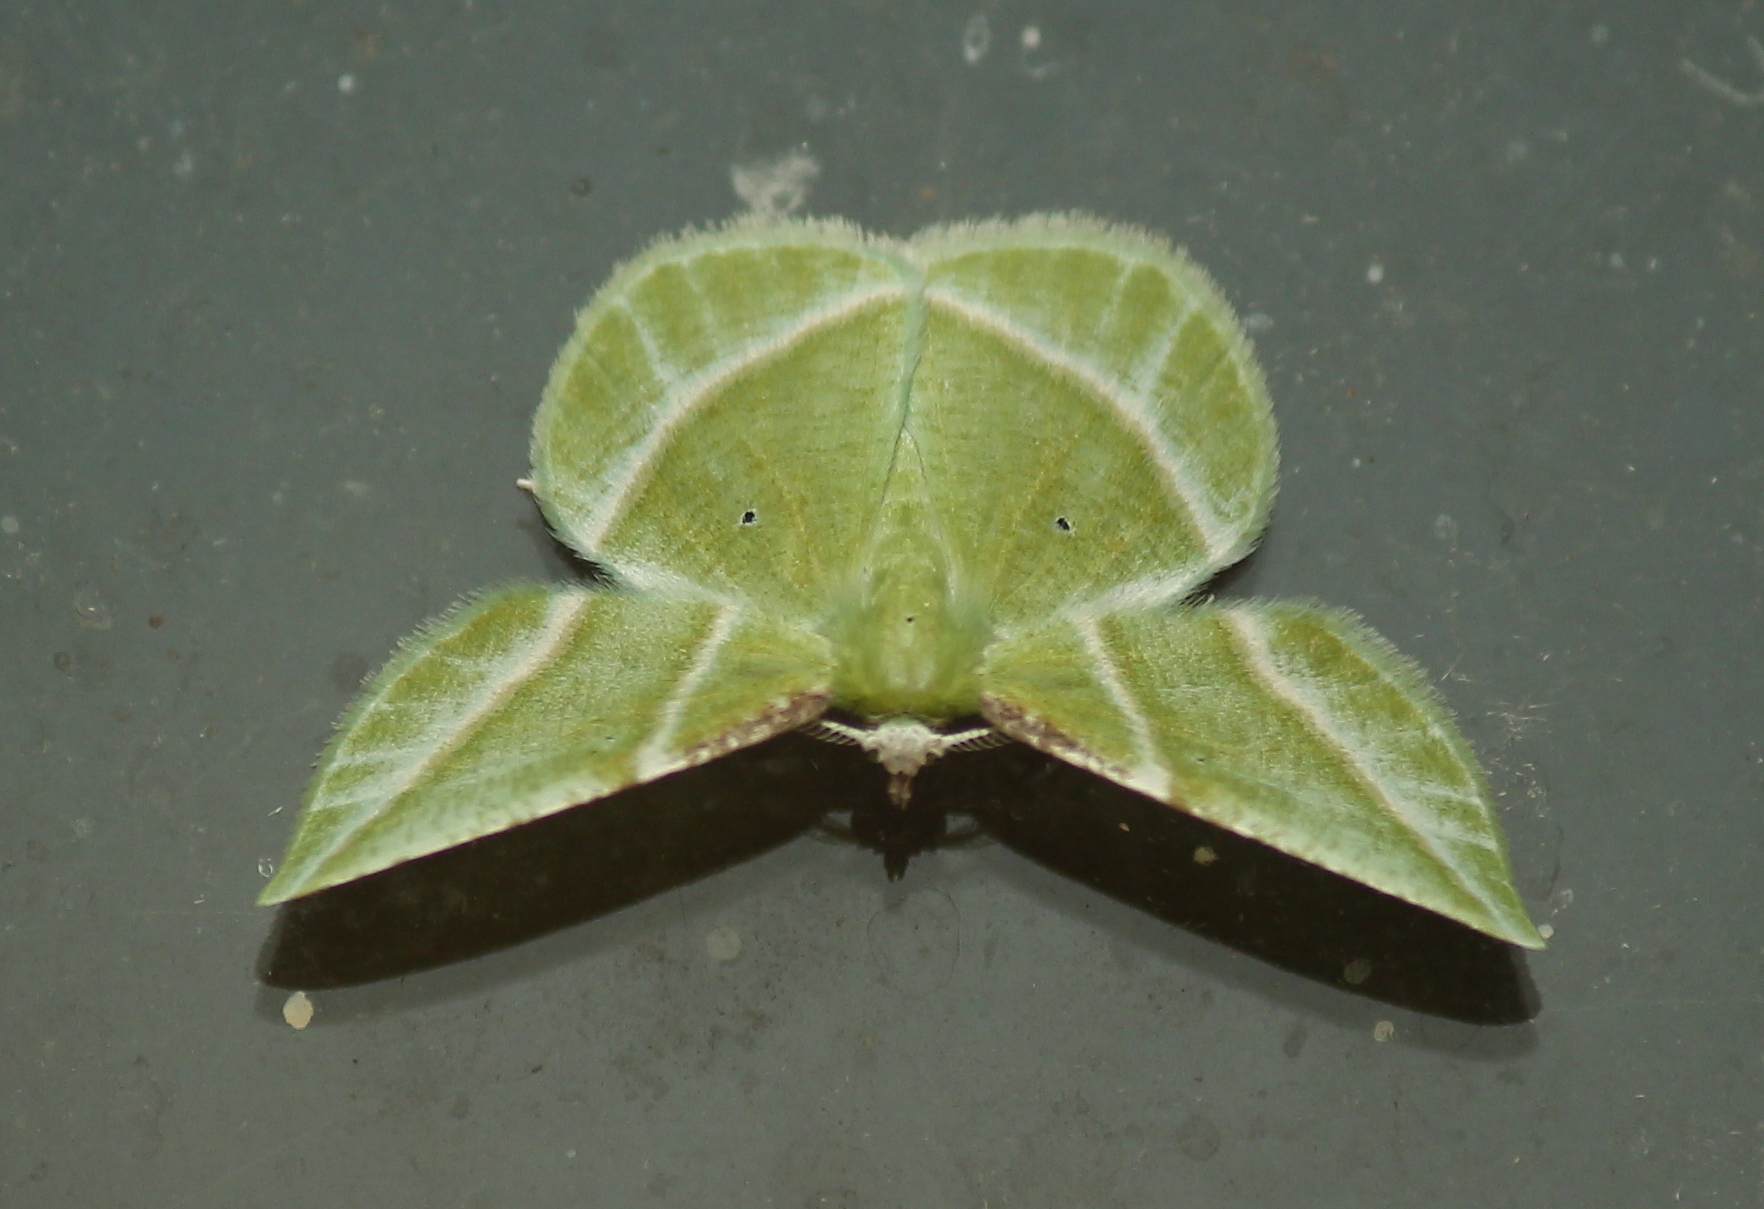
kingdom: Animalia
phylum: Arthropoda
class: Insecta
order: Lepidoptera
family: Geometridae
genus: Dichorda
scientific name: Dichorda iridaria
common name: Showy emerald
